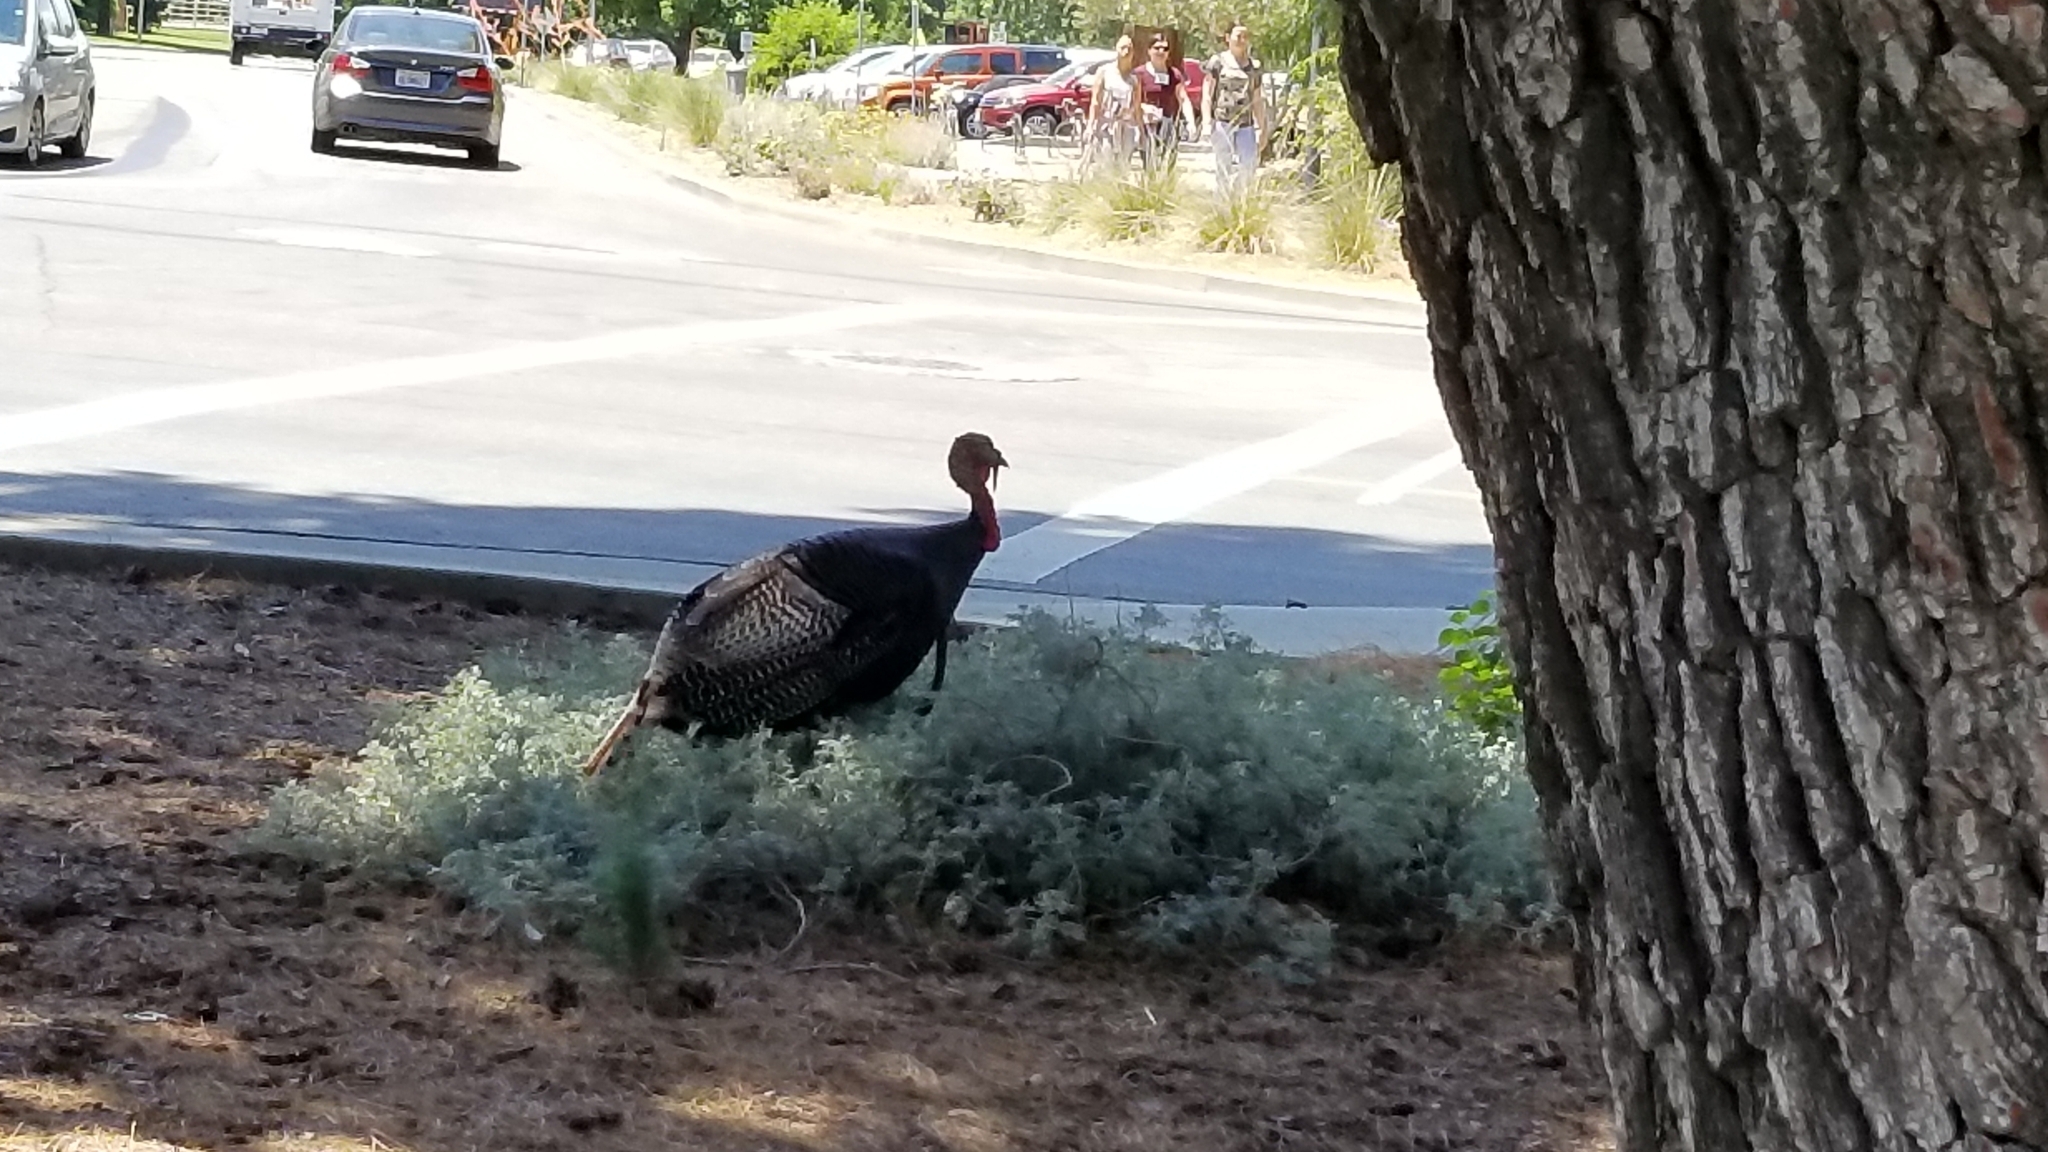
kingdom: Animalia
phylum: Chordata
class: Aves
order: Galliformes
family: Phasianidae
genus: Meleagris
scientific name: Meleagris gallopavo
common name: Wild turkey
